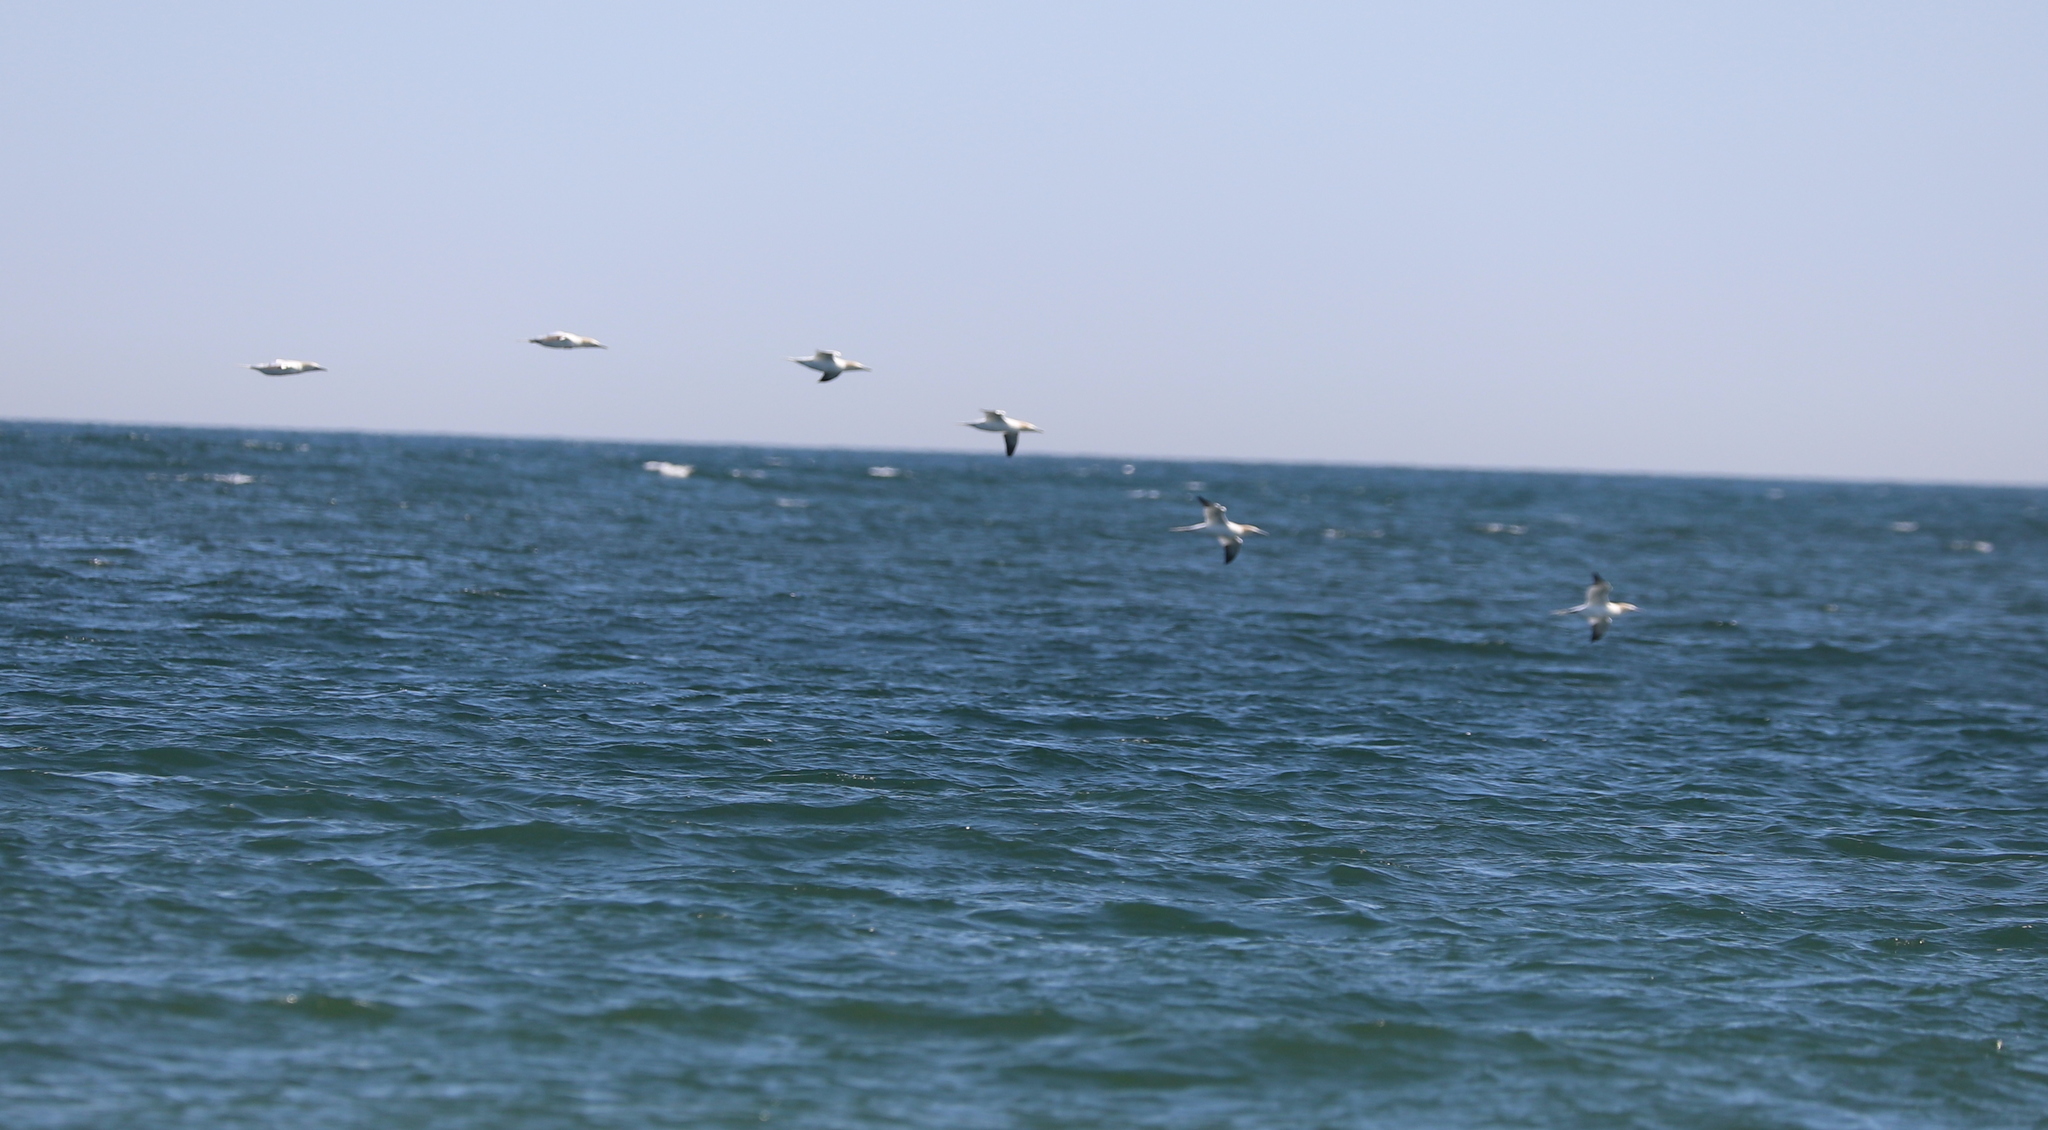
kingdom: Animalia
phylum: Chordata
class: Aves
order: Suliformes
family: Sulidae
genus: Morus
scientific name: Morus bassanus
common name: Northern gannet
